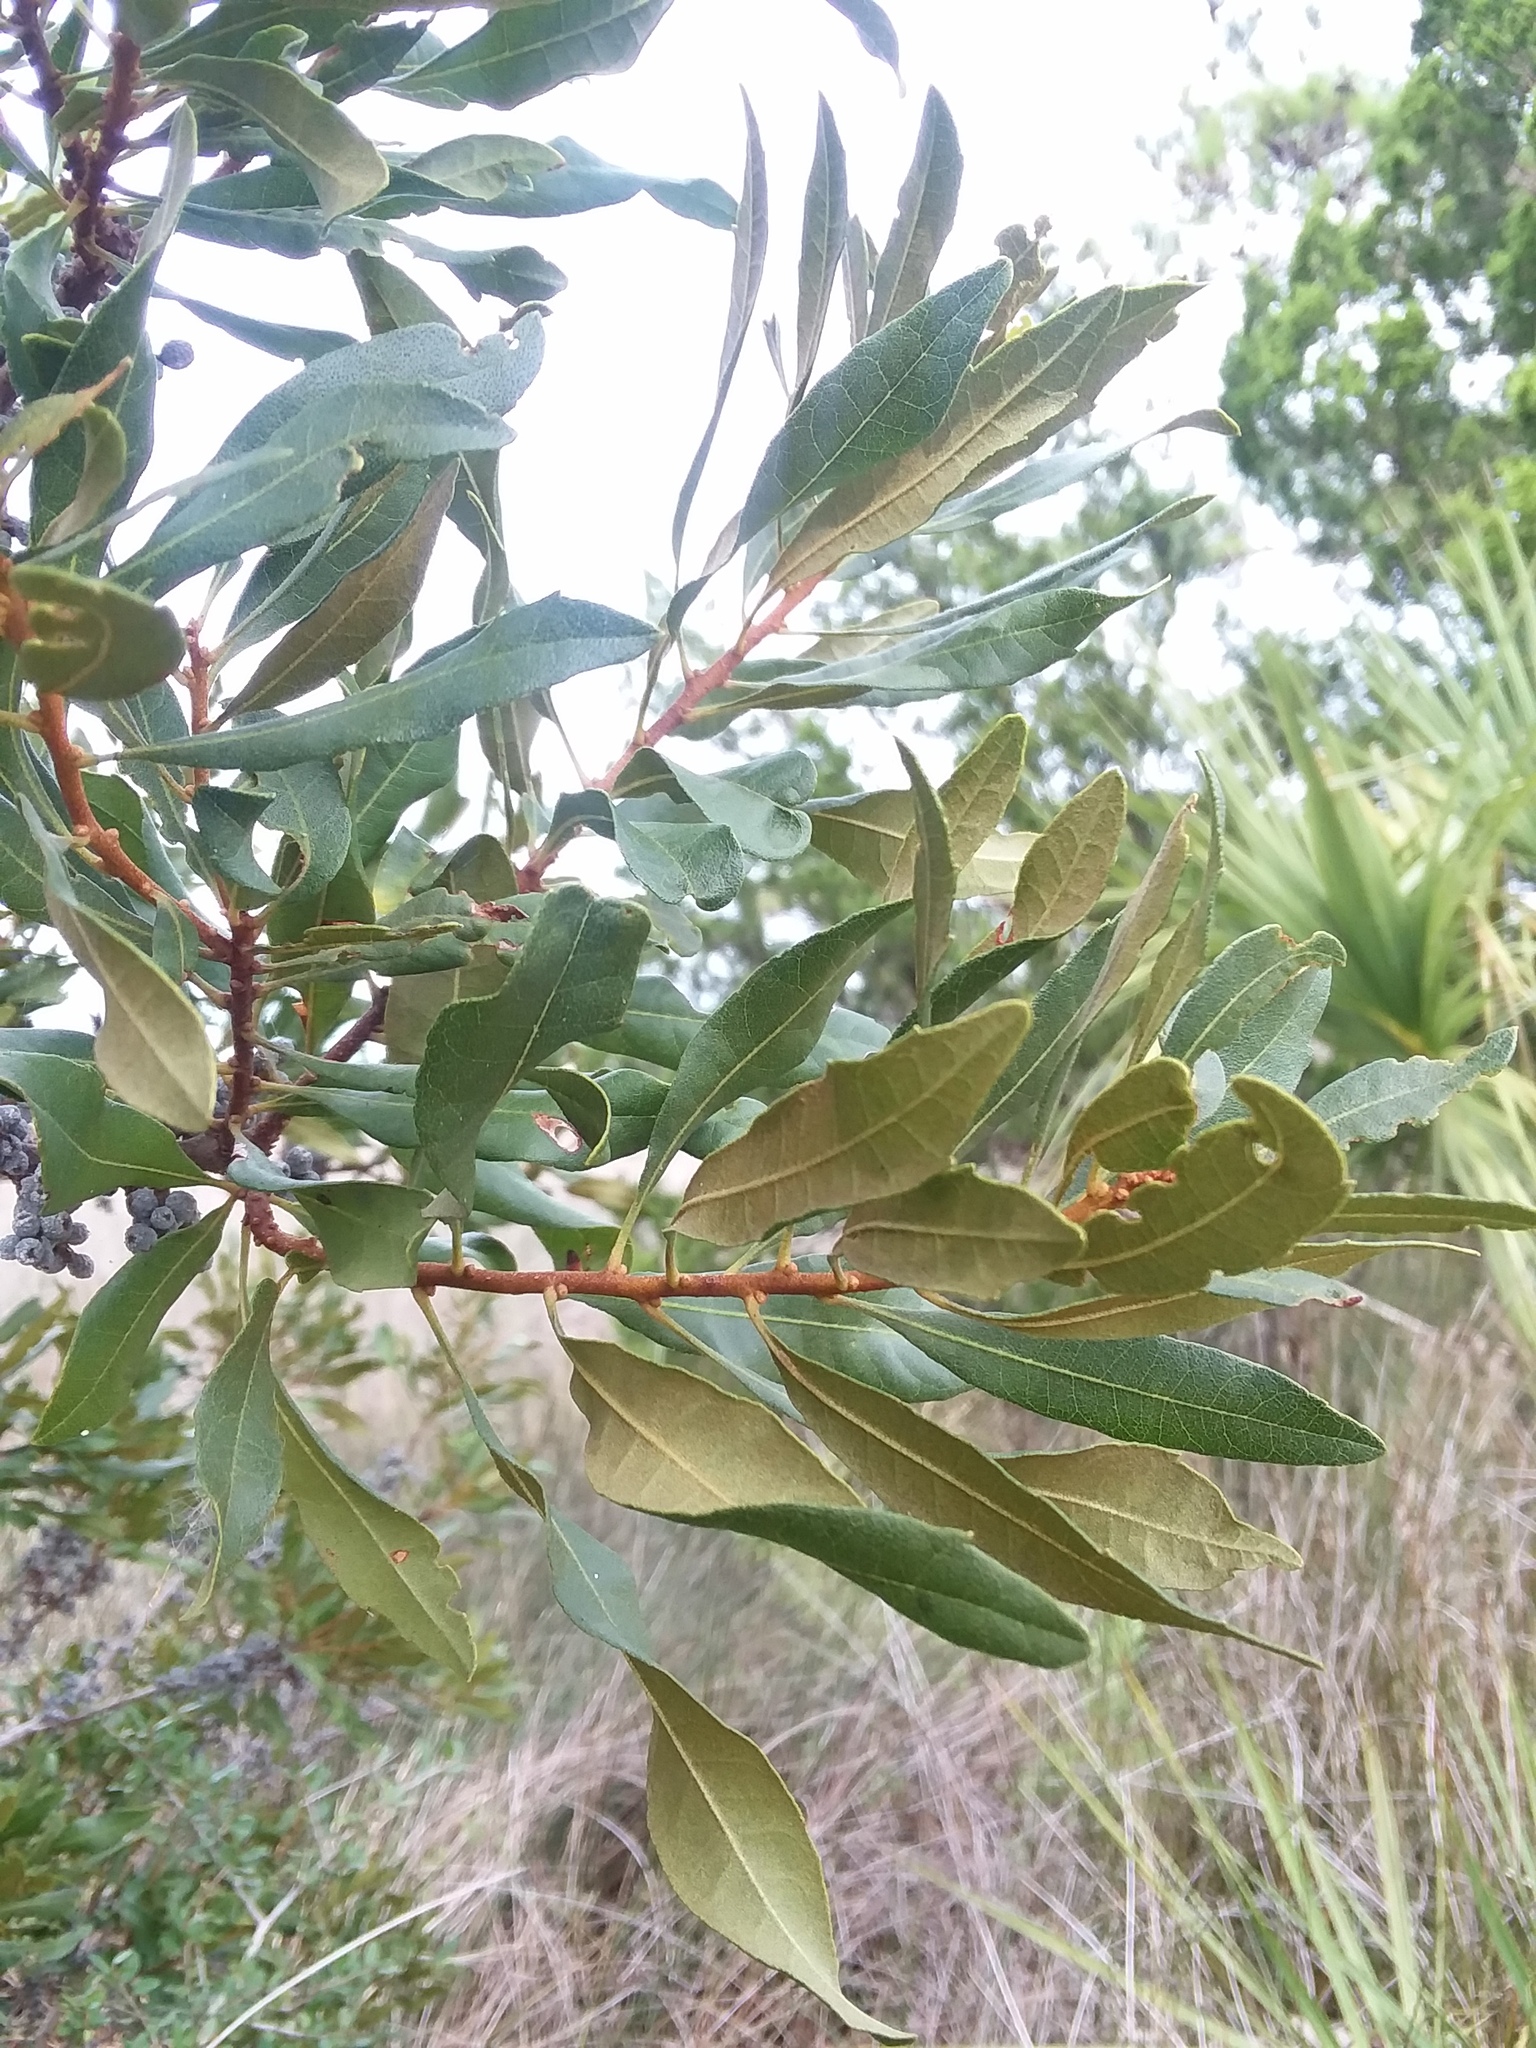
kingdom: Plantae
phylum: Tracheophyta
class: Magnoliopsida
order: Fagales
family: Myricaceae
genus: Morella
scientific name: Morella cerifera
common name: Wax myrtle
